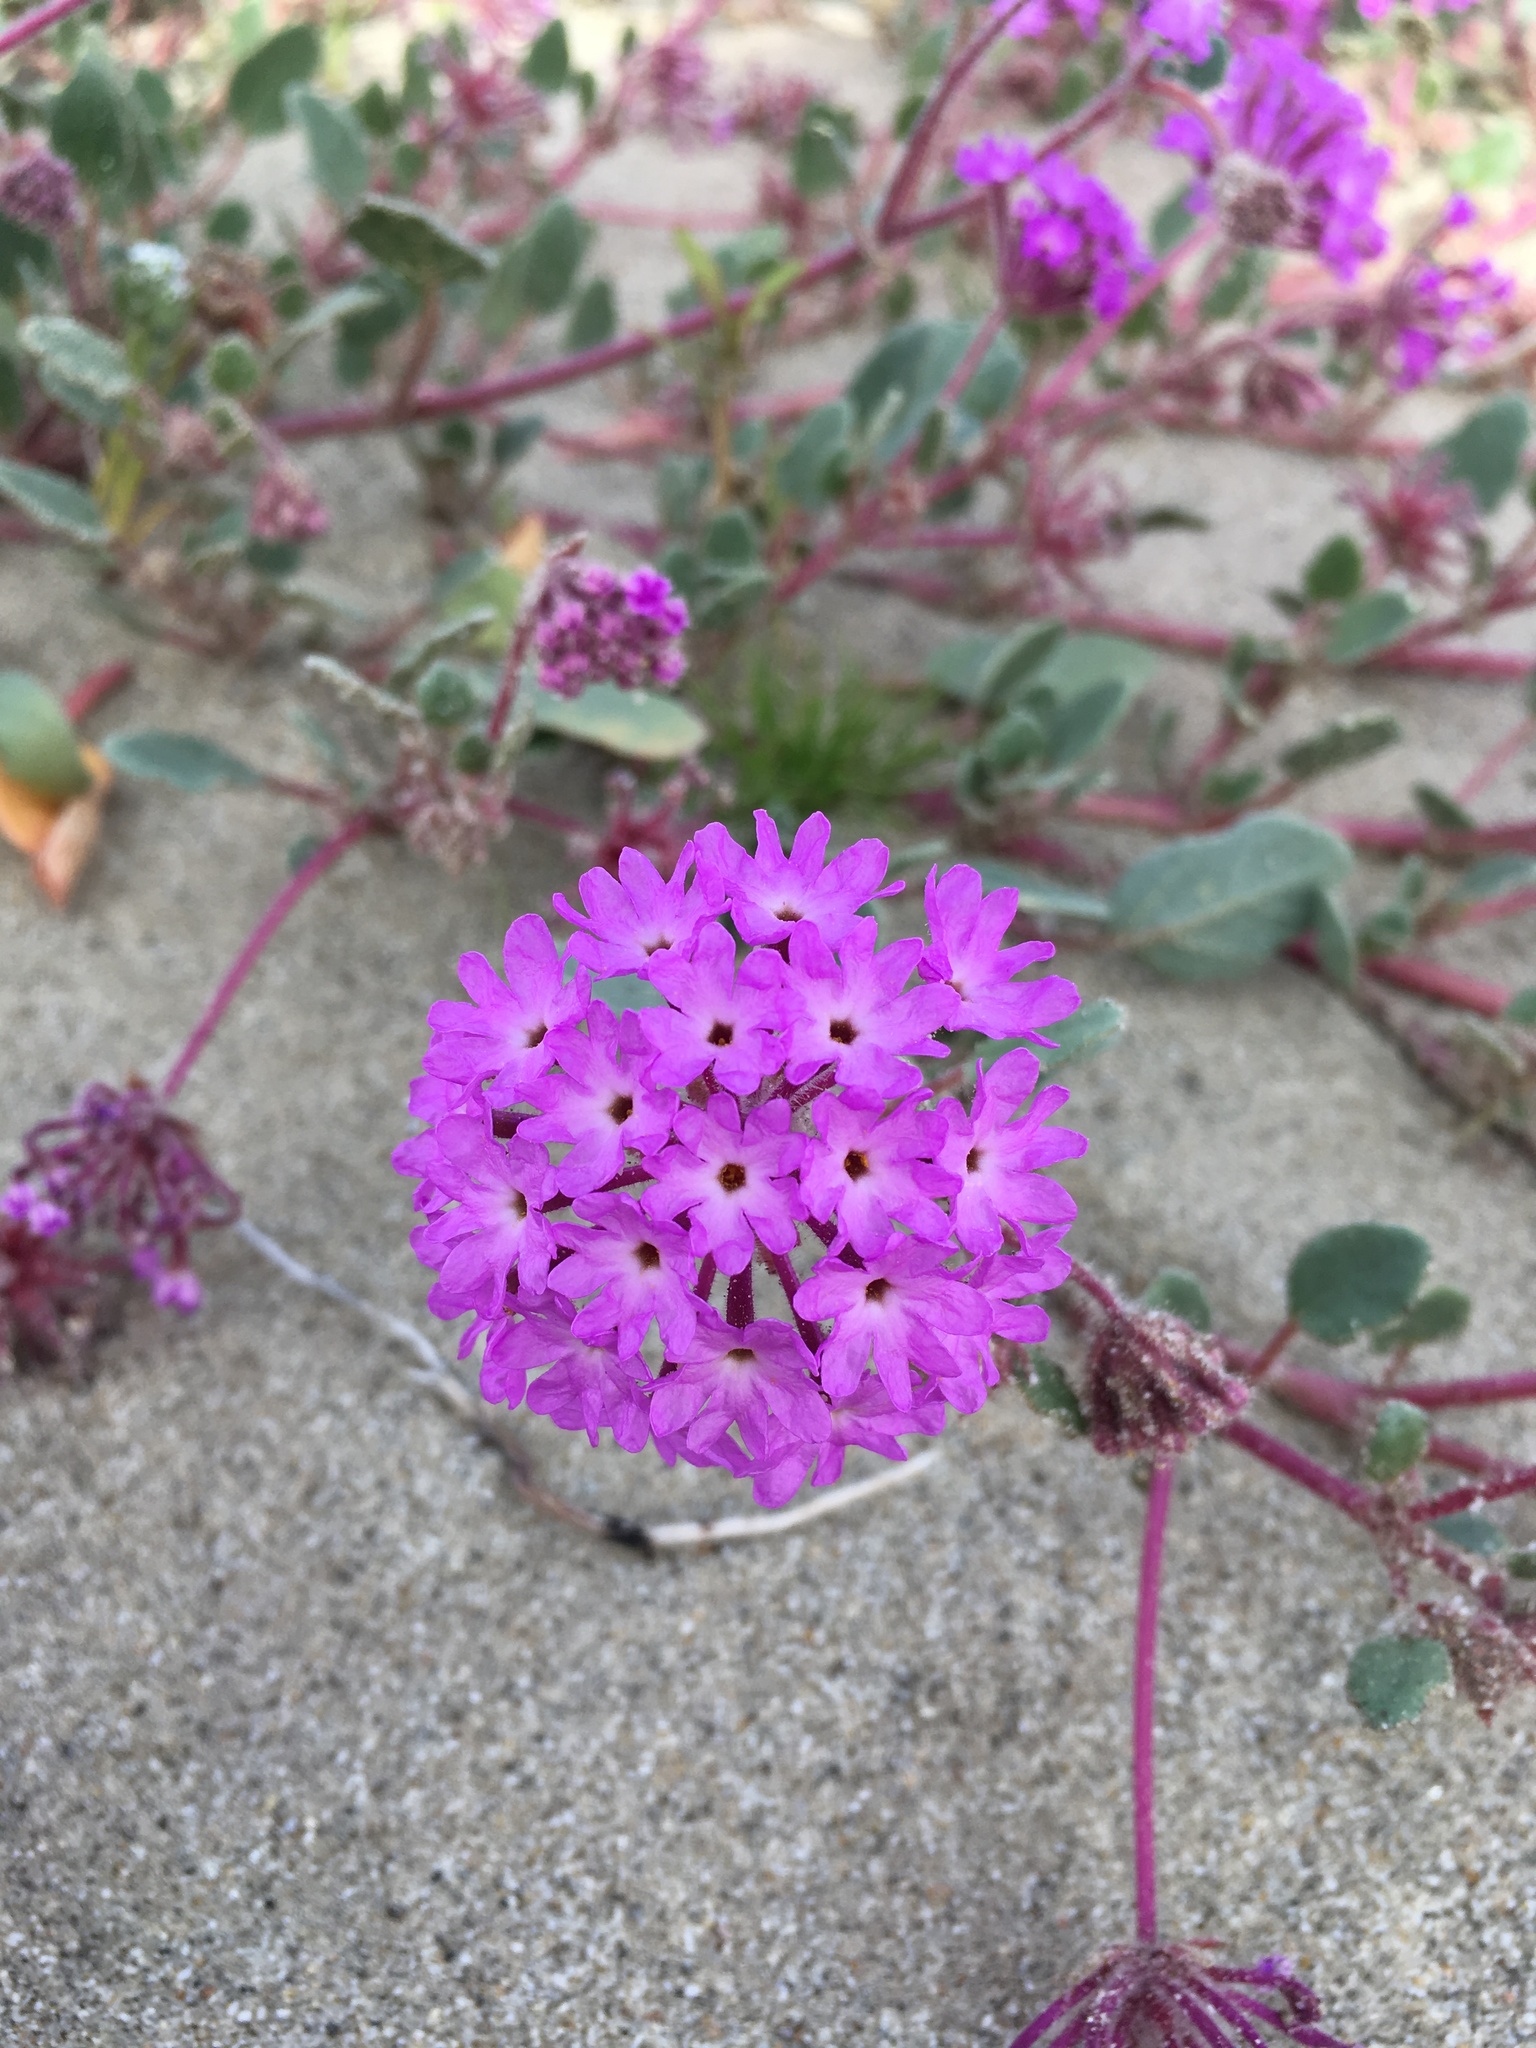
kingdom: Plantae
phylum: Tracheophyta
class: Magnoliopsida
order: Caryophyllales
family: Nyctaginaceae
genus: Abronia
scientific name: Abronia villosa
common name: Desert sand-verbena
